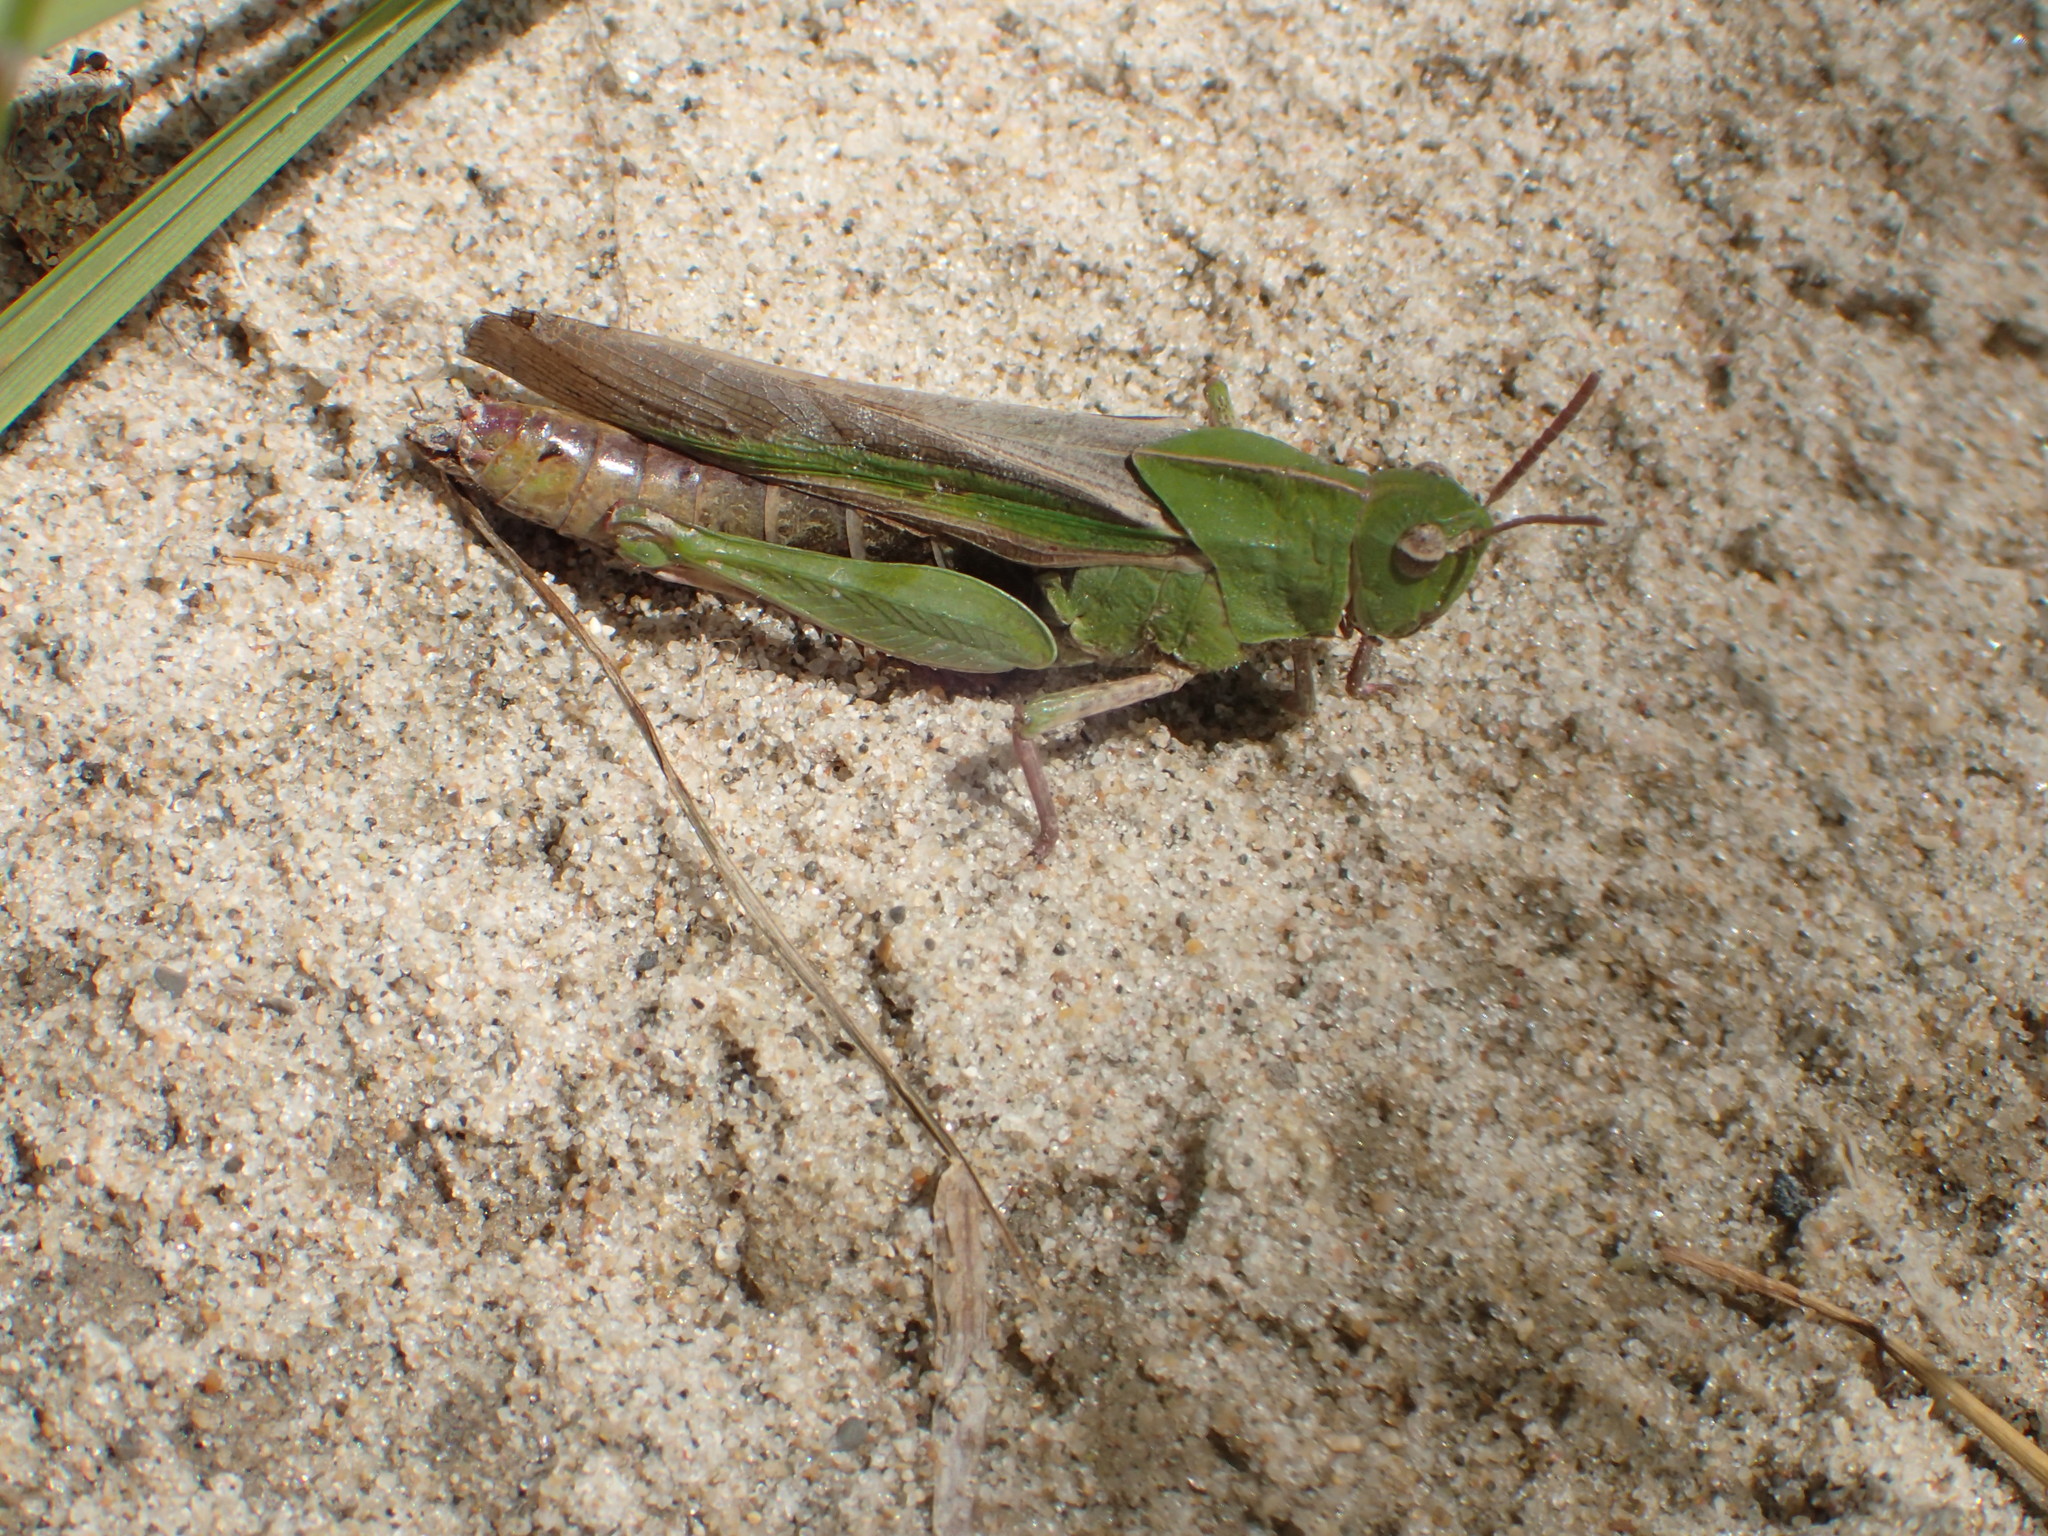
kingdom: Animalia
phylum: Arthropoda
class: Insecta
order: Orthoptera
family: Acrididae
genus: Chortophaga
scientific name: Chortophaga viridifasciata
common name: Green-striped grasshopper
